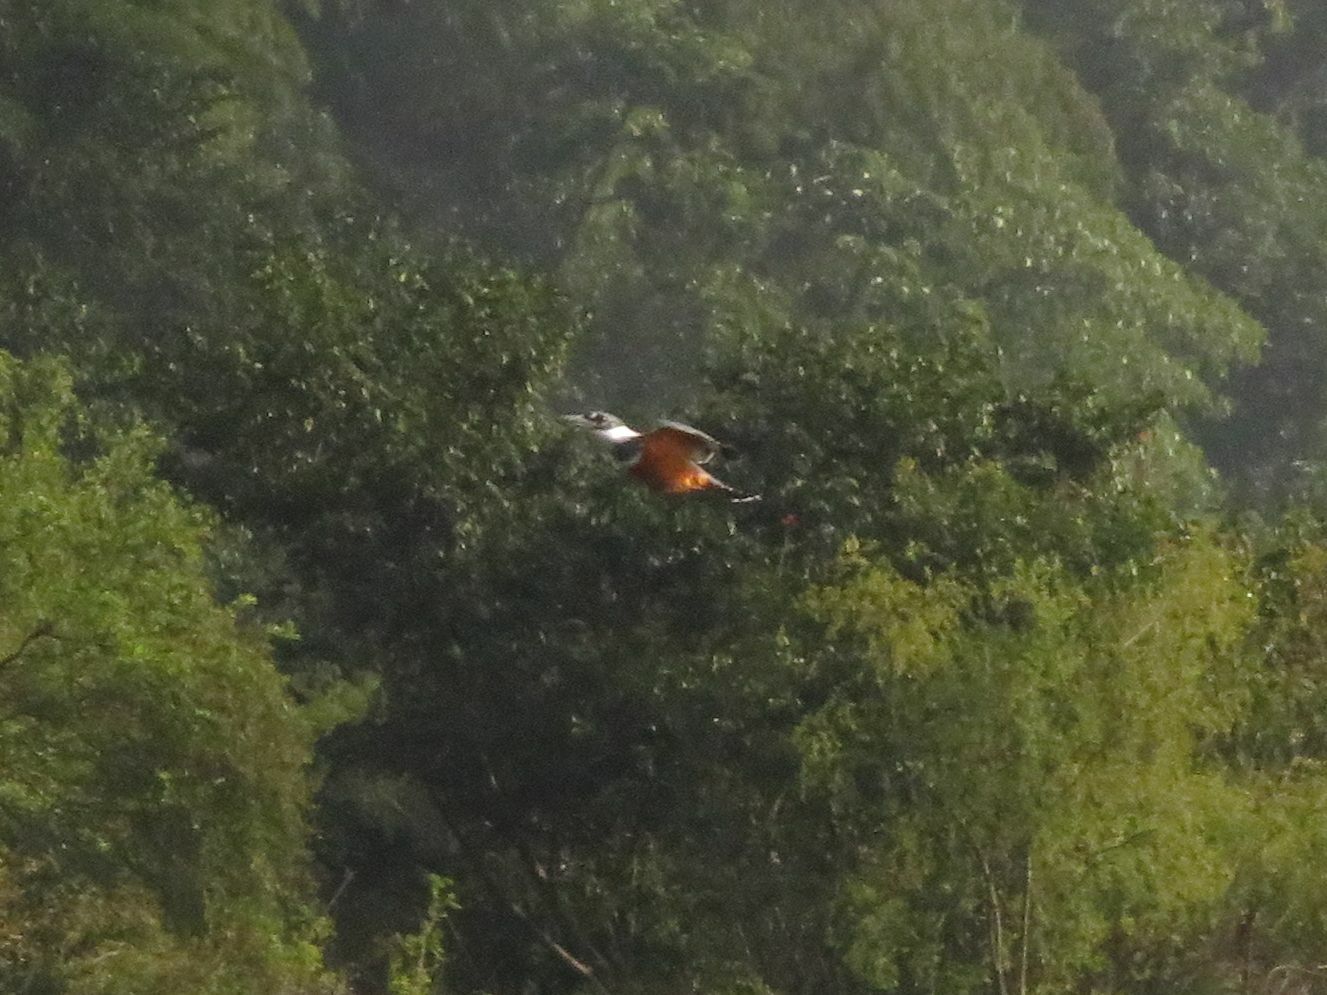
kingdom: Animalia
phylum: Chordata
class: Aves
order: Coraciiformes
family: Alcedinidae
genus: Megaceryle
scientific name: Megaceryle torquata
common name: Ringed kingfisher
